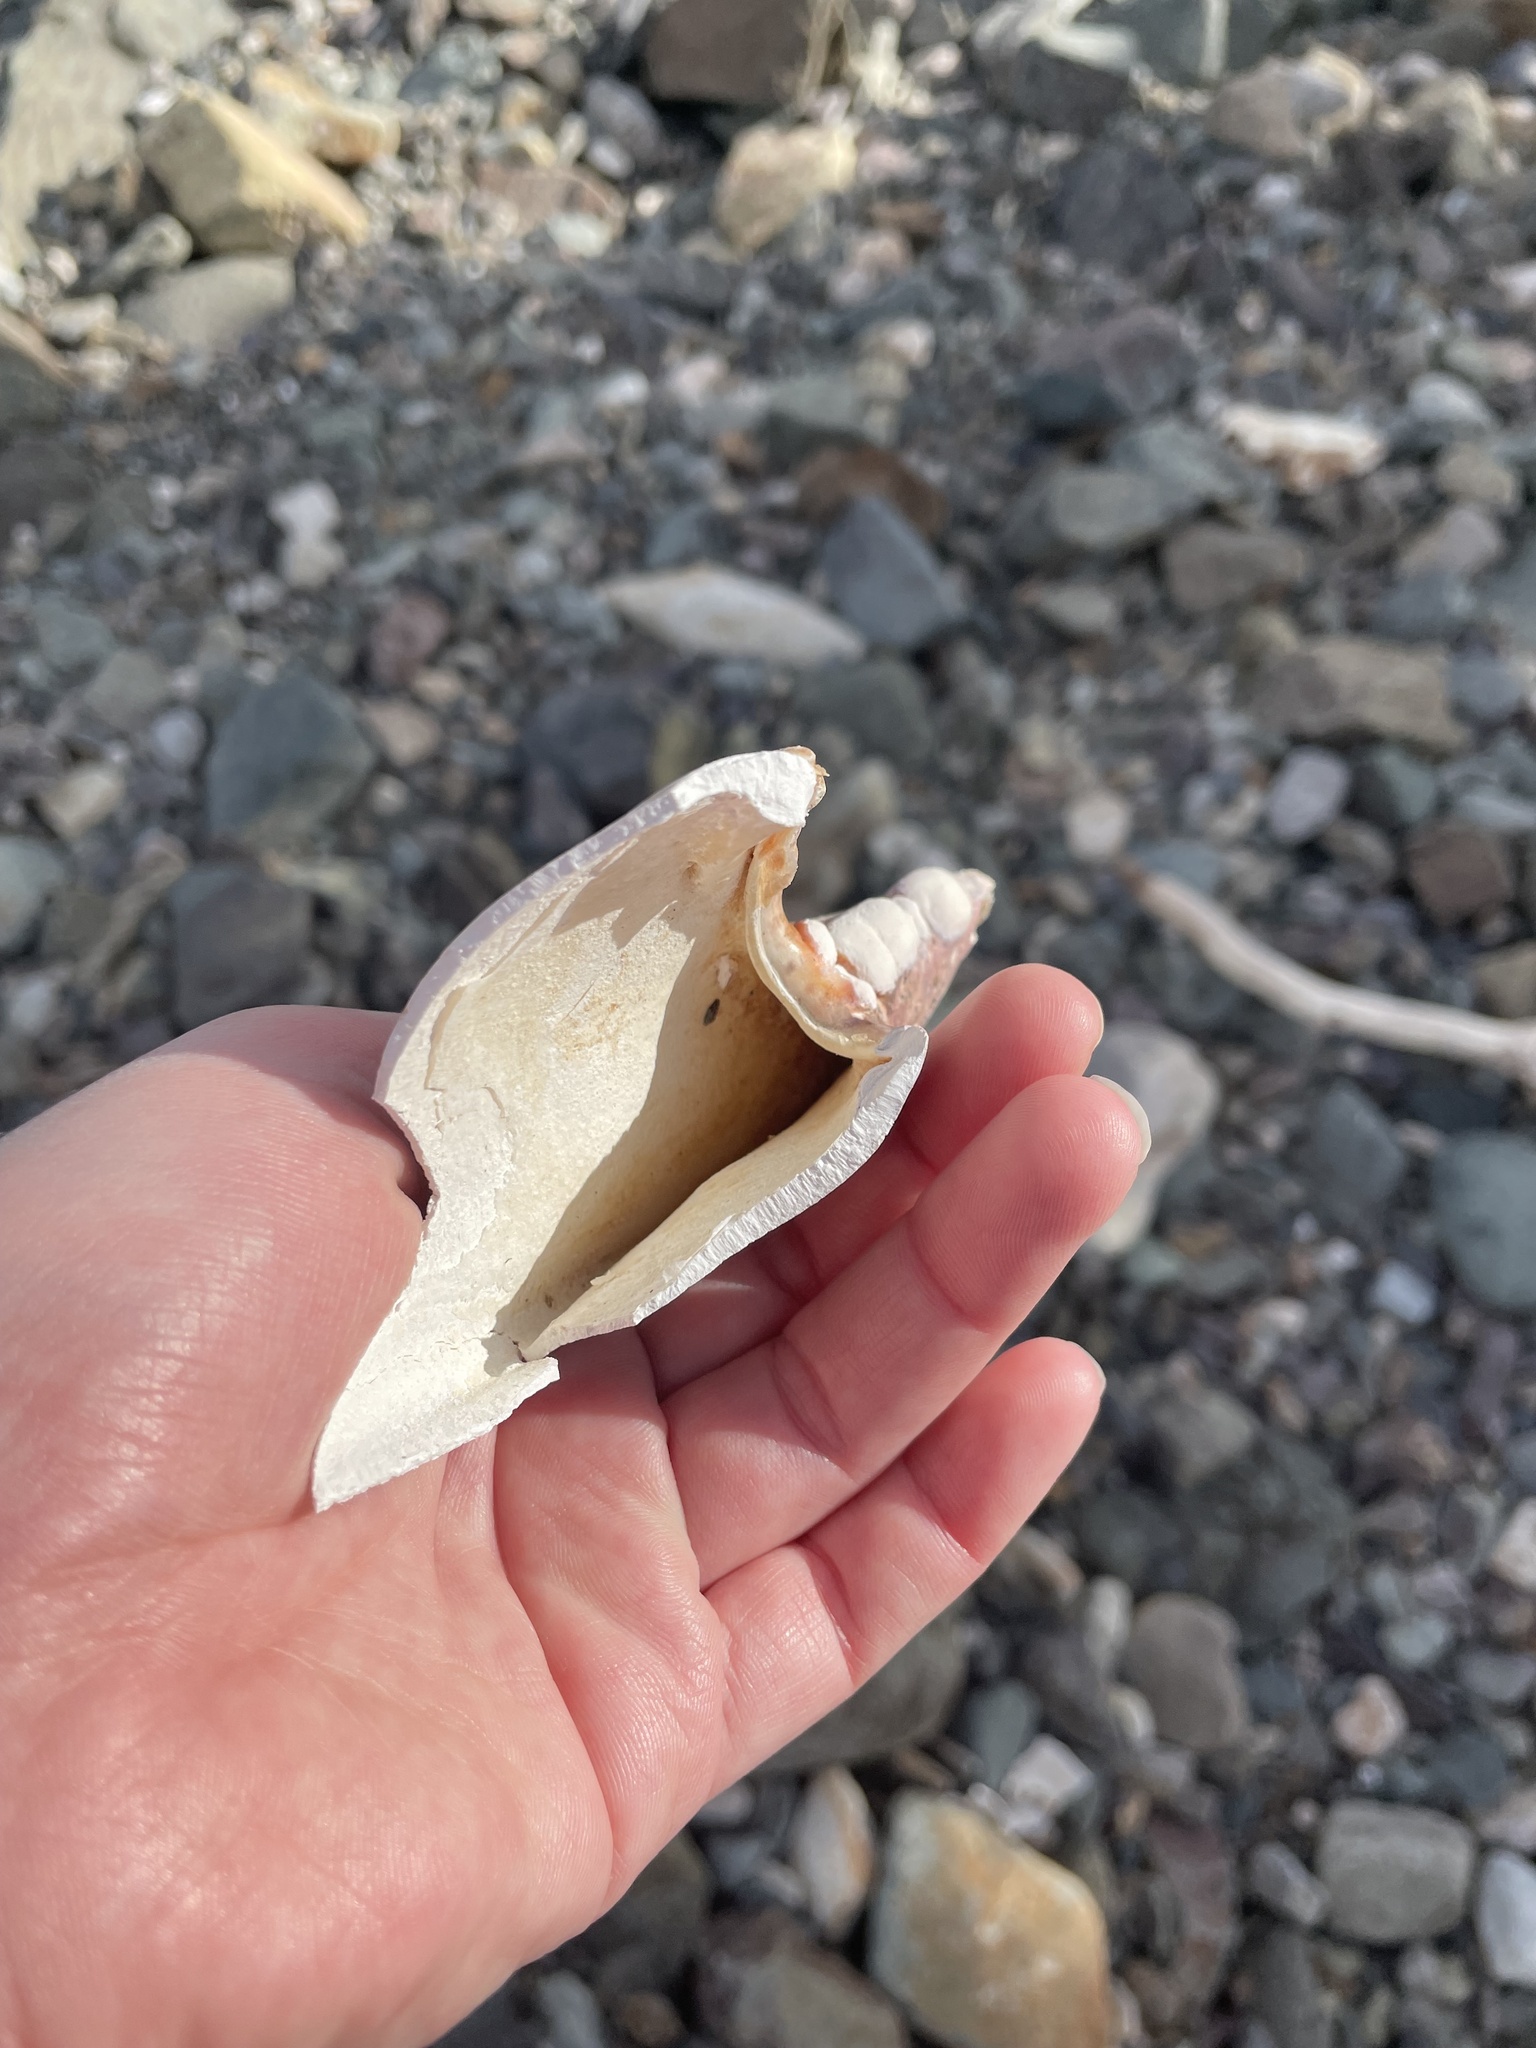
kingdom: Animalia
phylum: Arthropoda
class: Malacostraca
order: Decapoda
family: Nephropidae
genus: Homarus
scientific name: Homarus americanus
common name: American lobster
